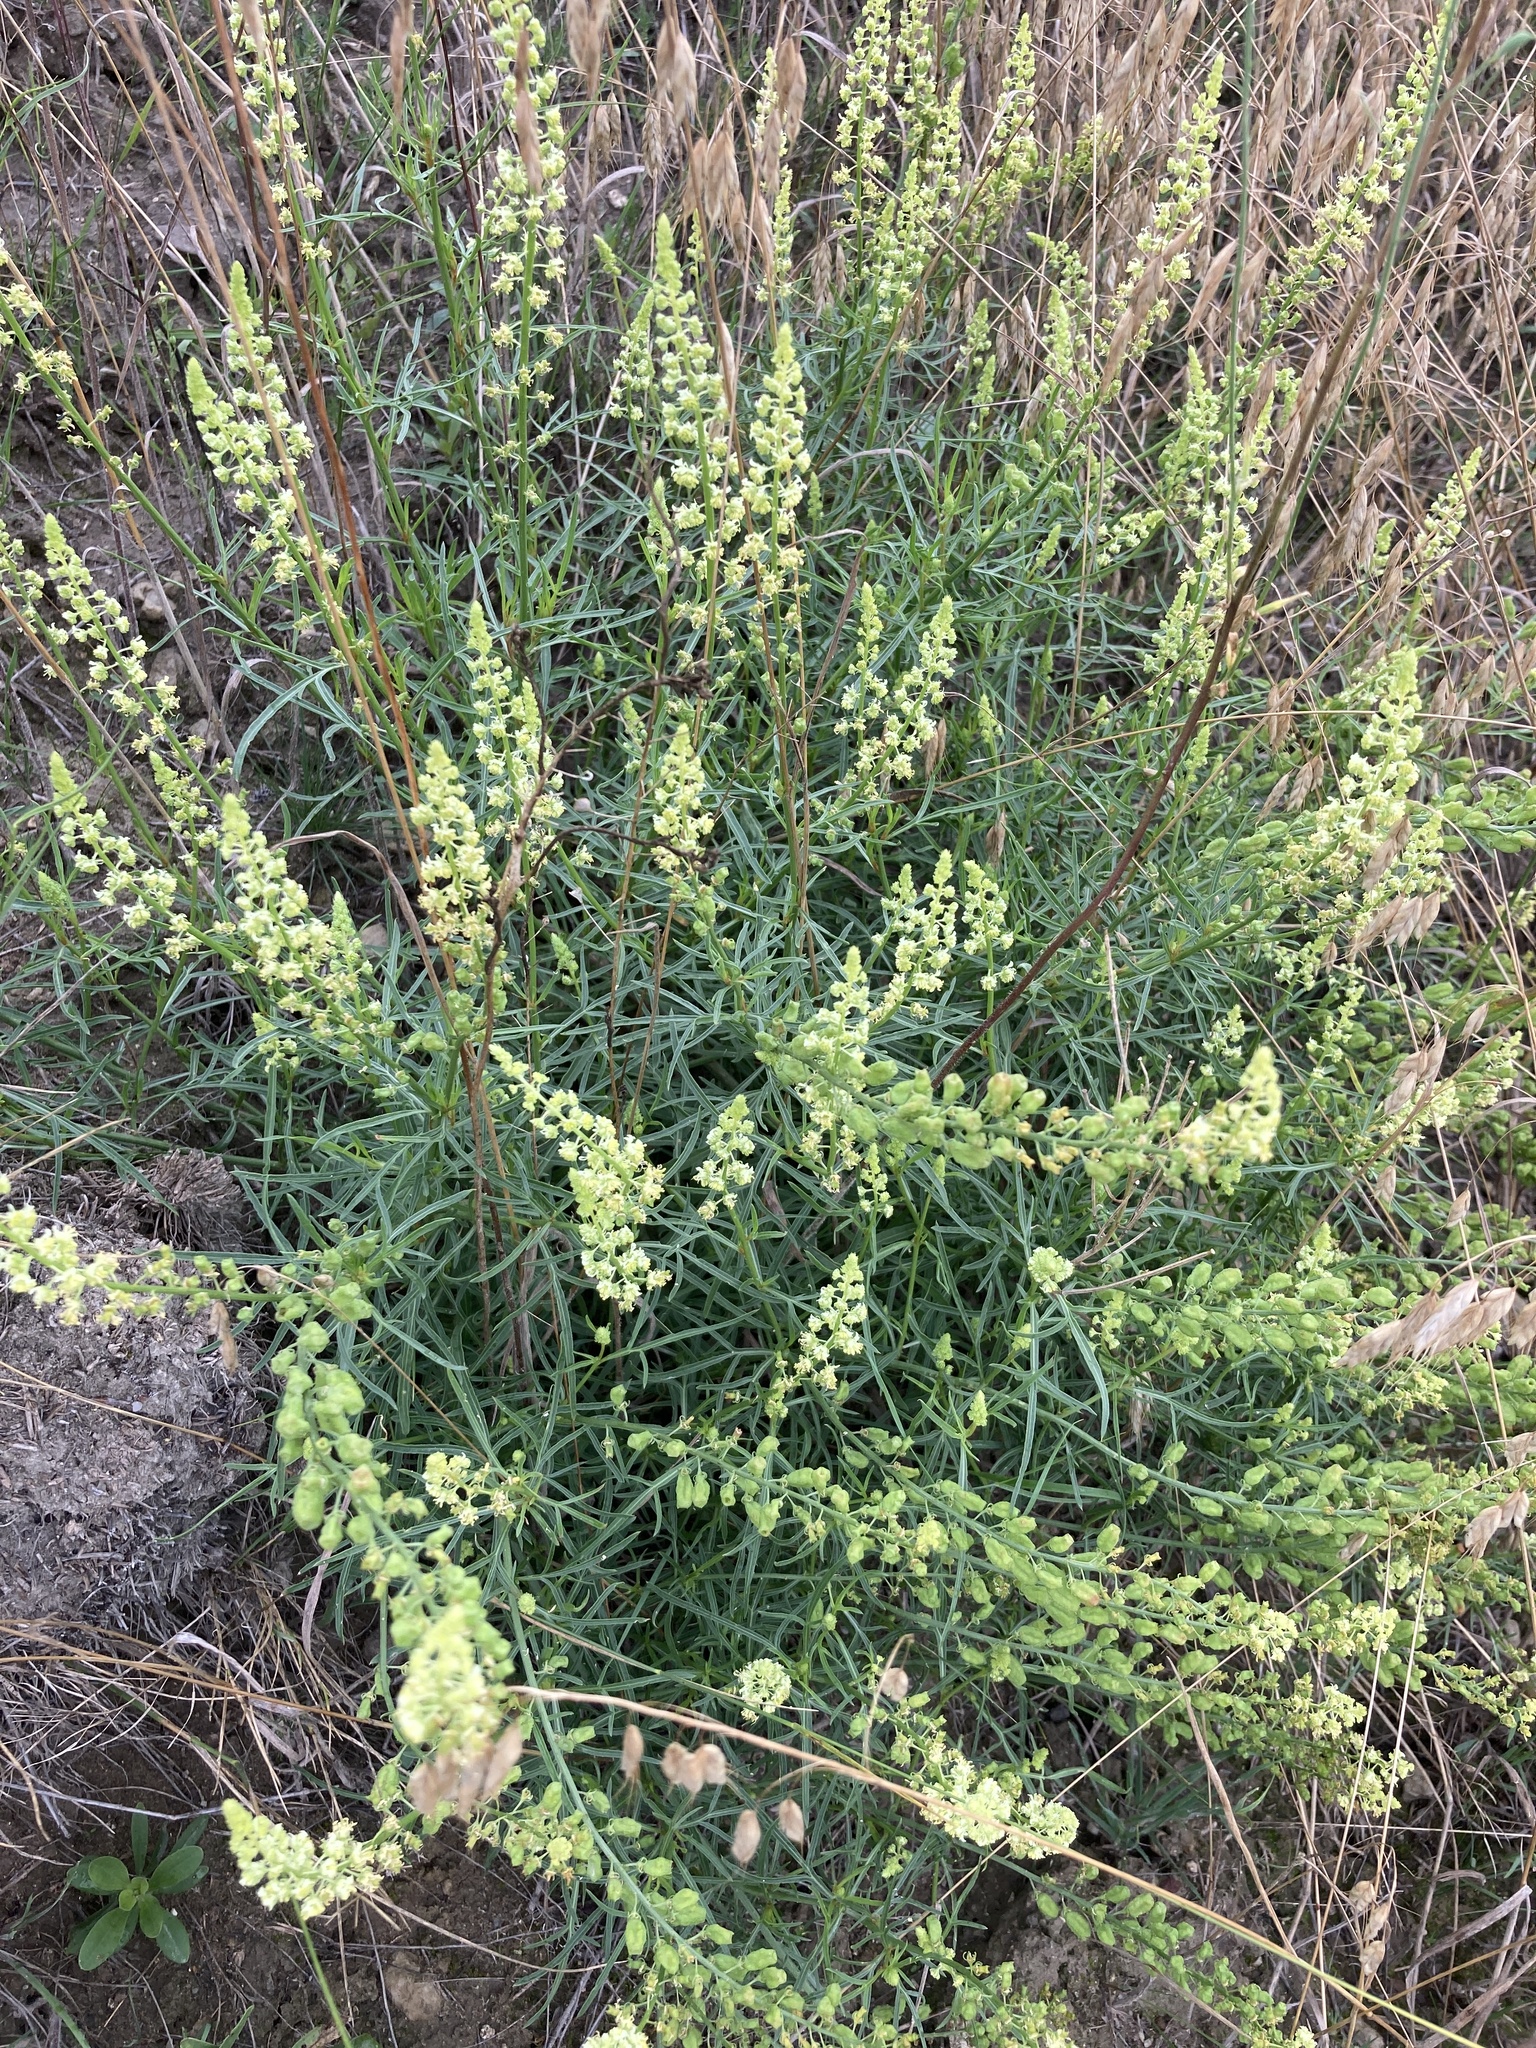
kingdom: Plantae
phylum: Tracheophyta
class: Magnoliopsida
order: Brassicales
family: Resedaceae
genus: Reseda
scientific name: Reseda lutea
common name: Wild mignonette
